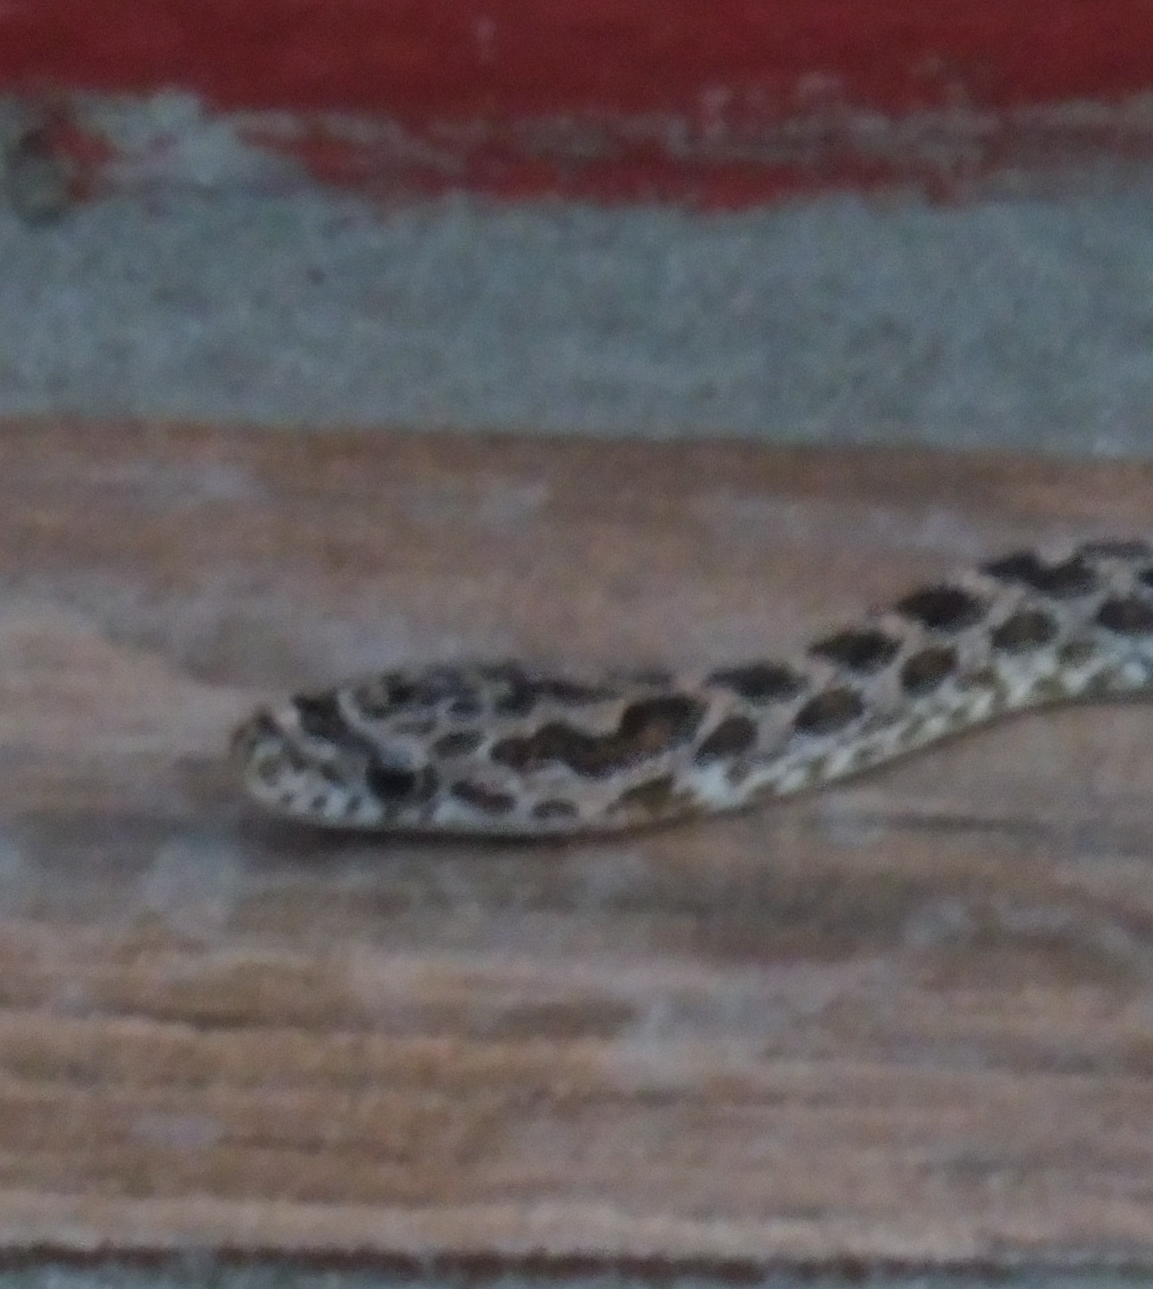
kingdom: Animalia
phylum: Chordata
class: Squamata
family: Colubridae
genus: Senticolis
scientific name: Senticolis triaspis
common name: Green rat snake
